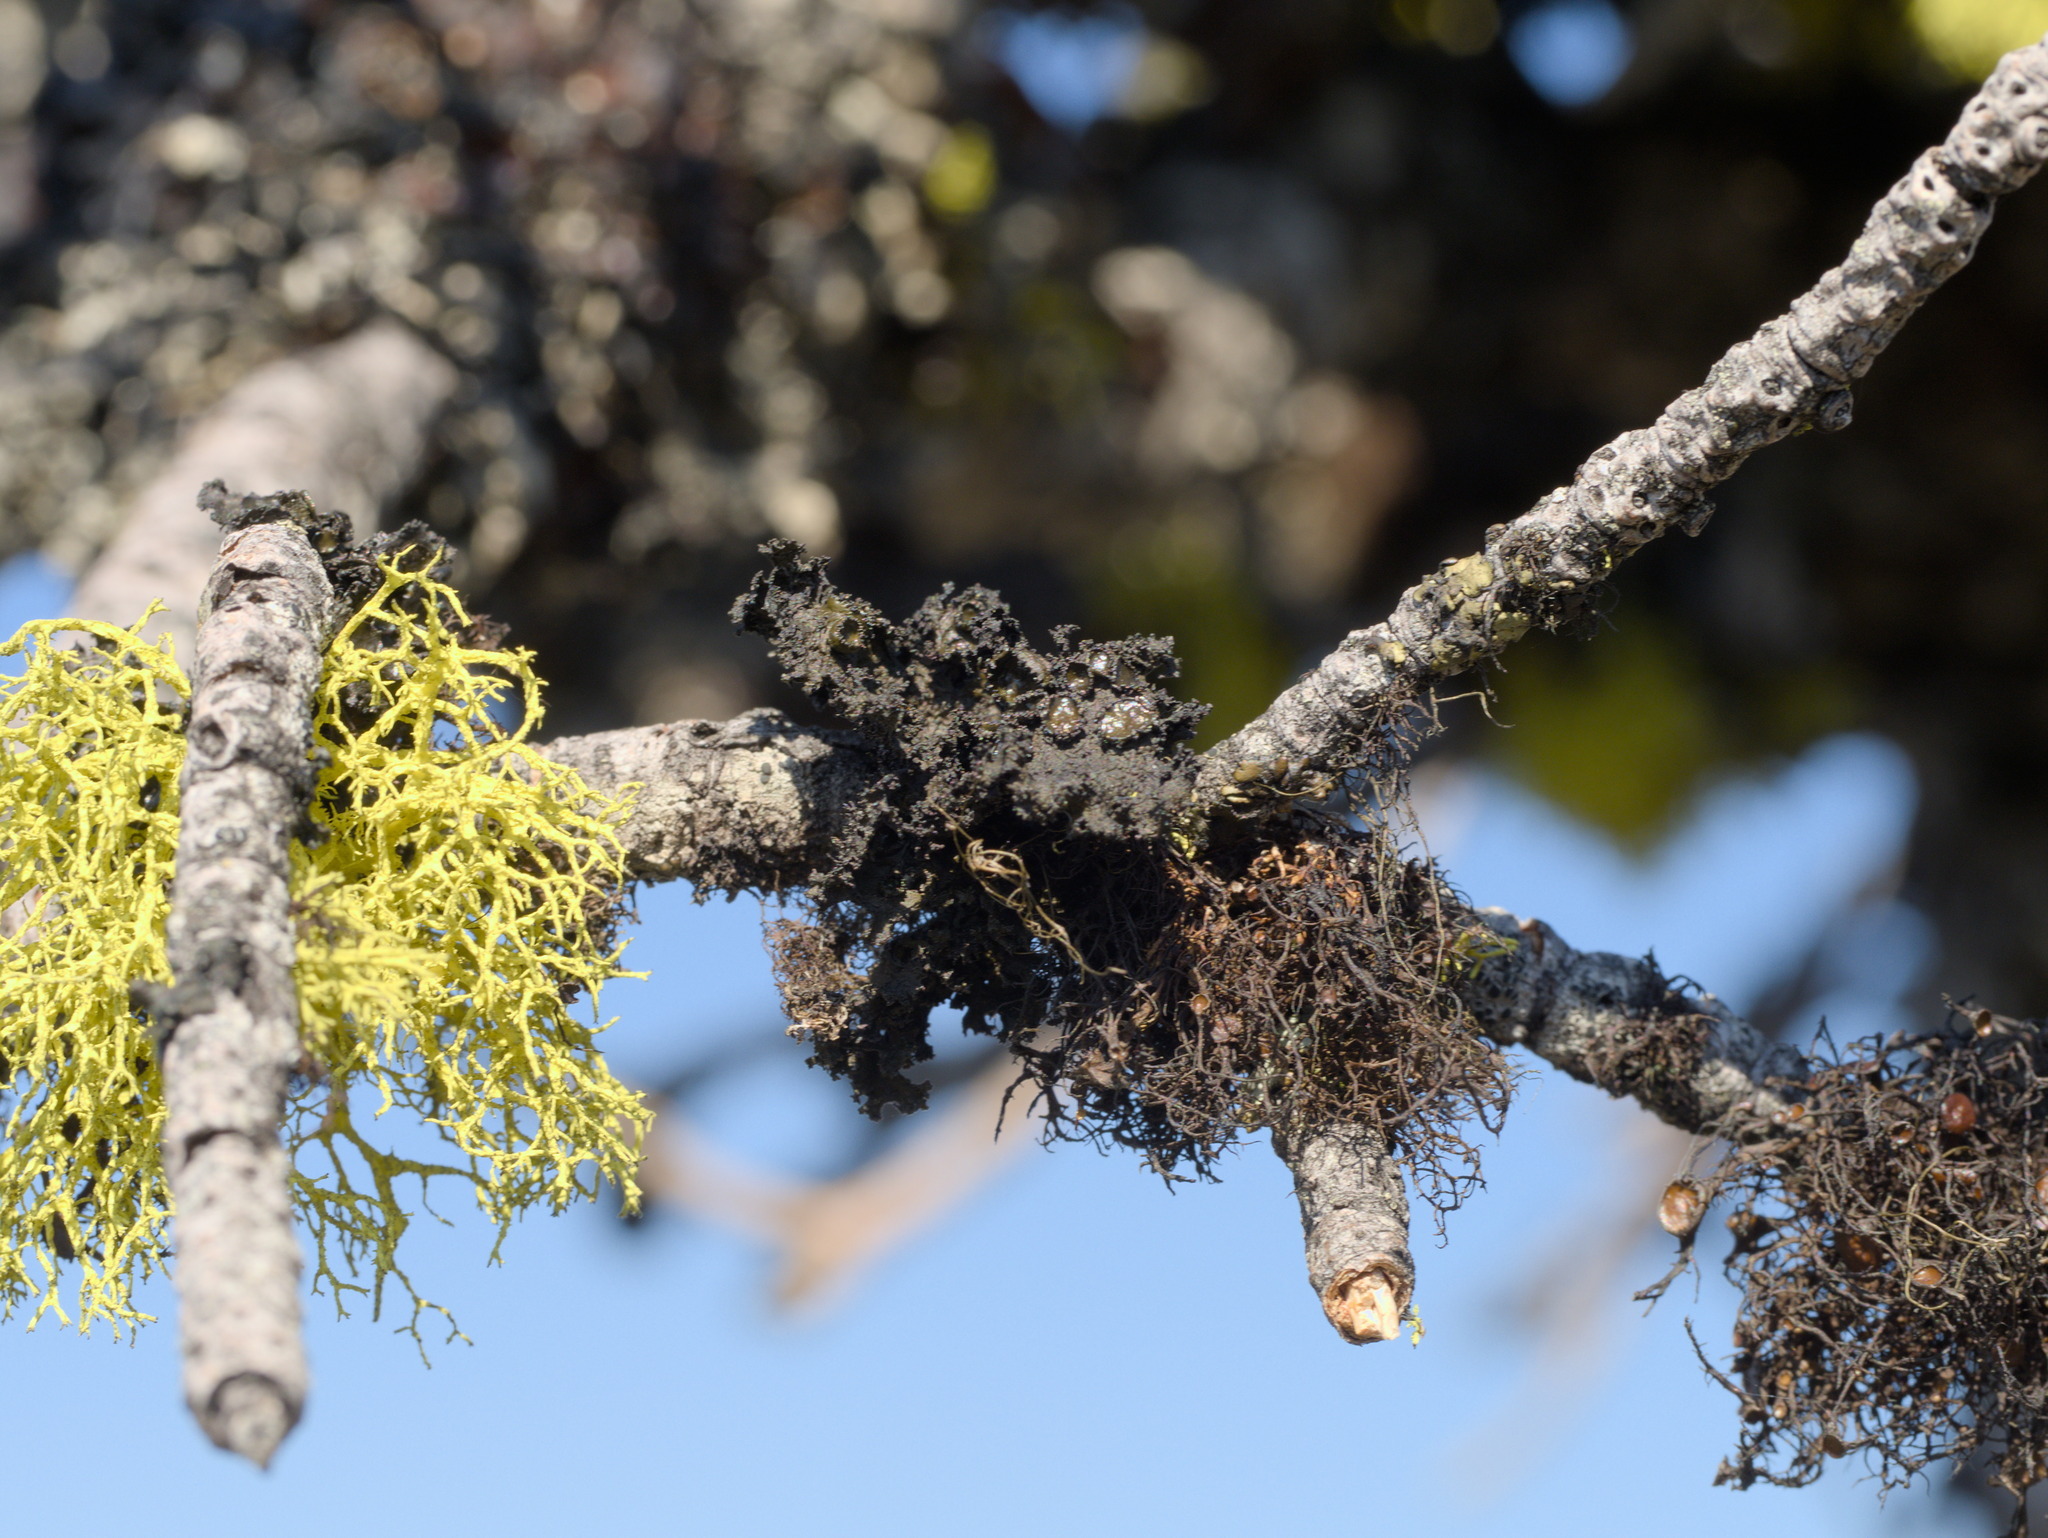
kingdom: Fungi
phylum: Ascomycota
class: Lecanoromycetes
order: Lecanorales
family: Parmeliaceae
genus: Nephromopsis
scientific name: Nephromopsis merrillii
